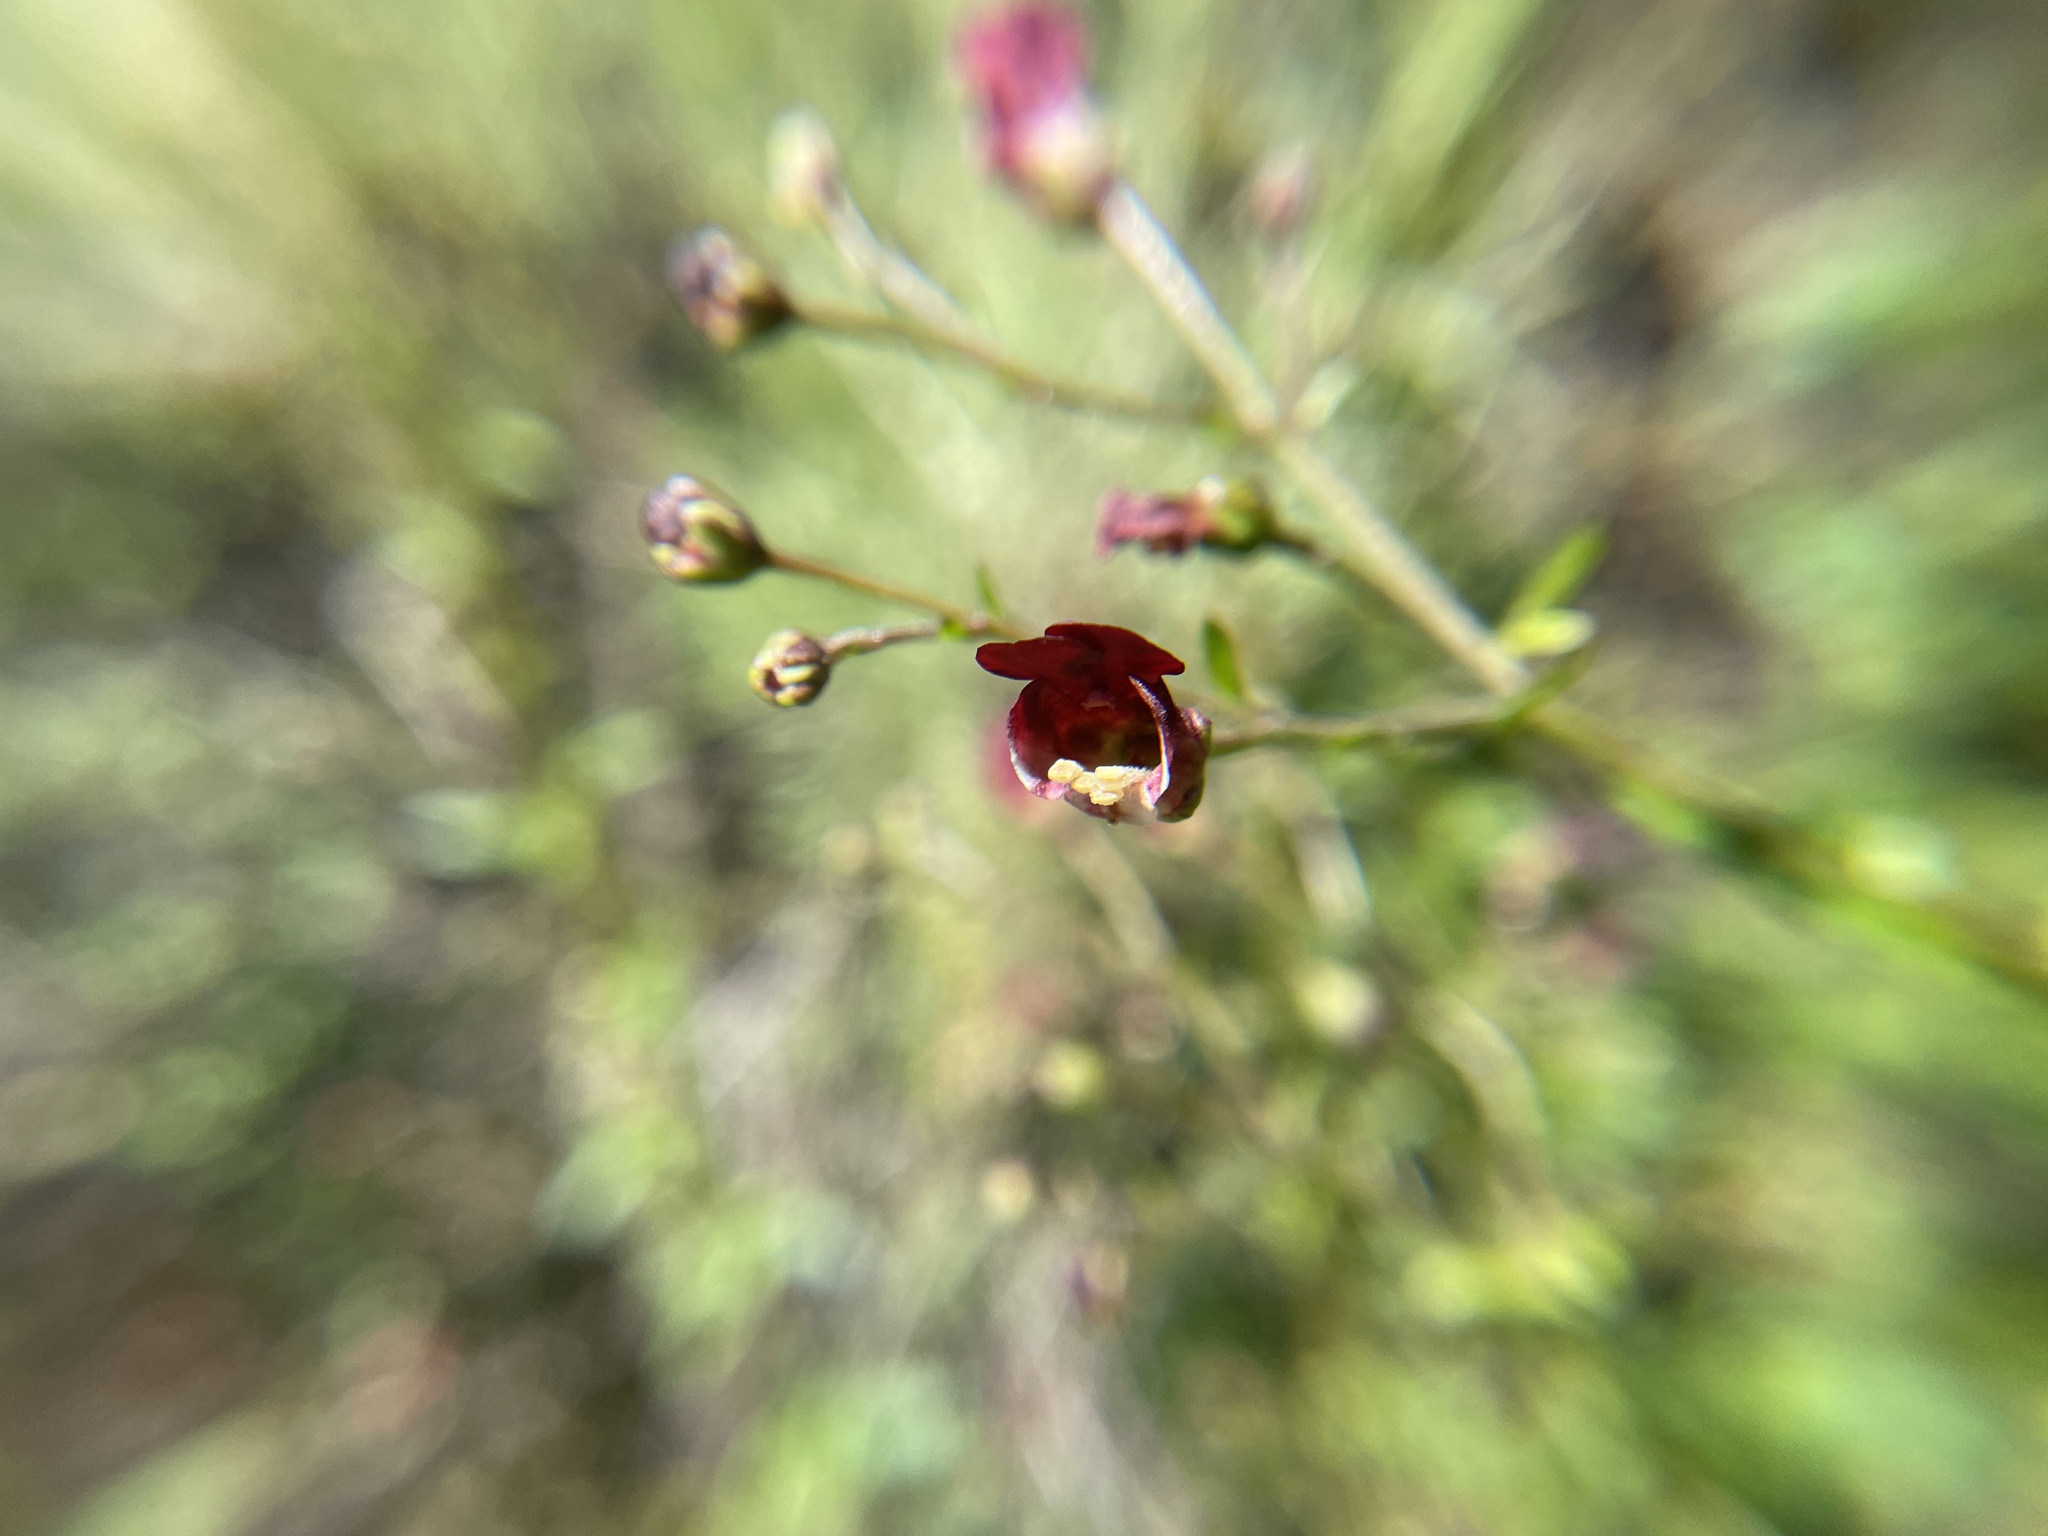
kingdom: Plantae
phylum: Tracheophyta
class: Magnoliopsida
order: Lamiales
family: Scrophulariaceae
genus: Scrophularia
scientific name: Scrophularia californica
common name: California figwort
